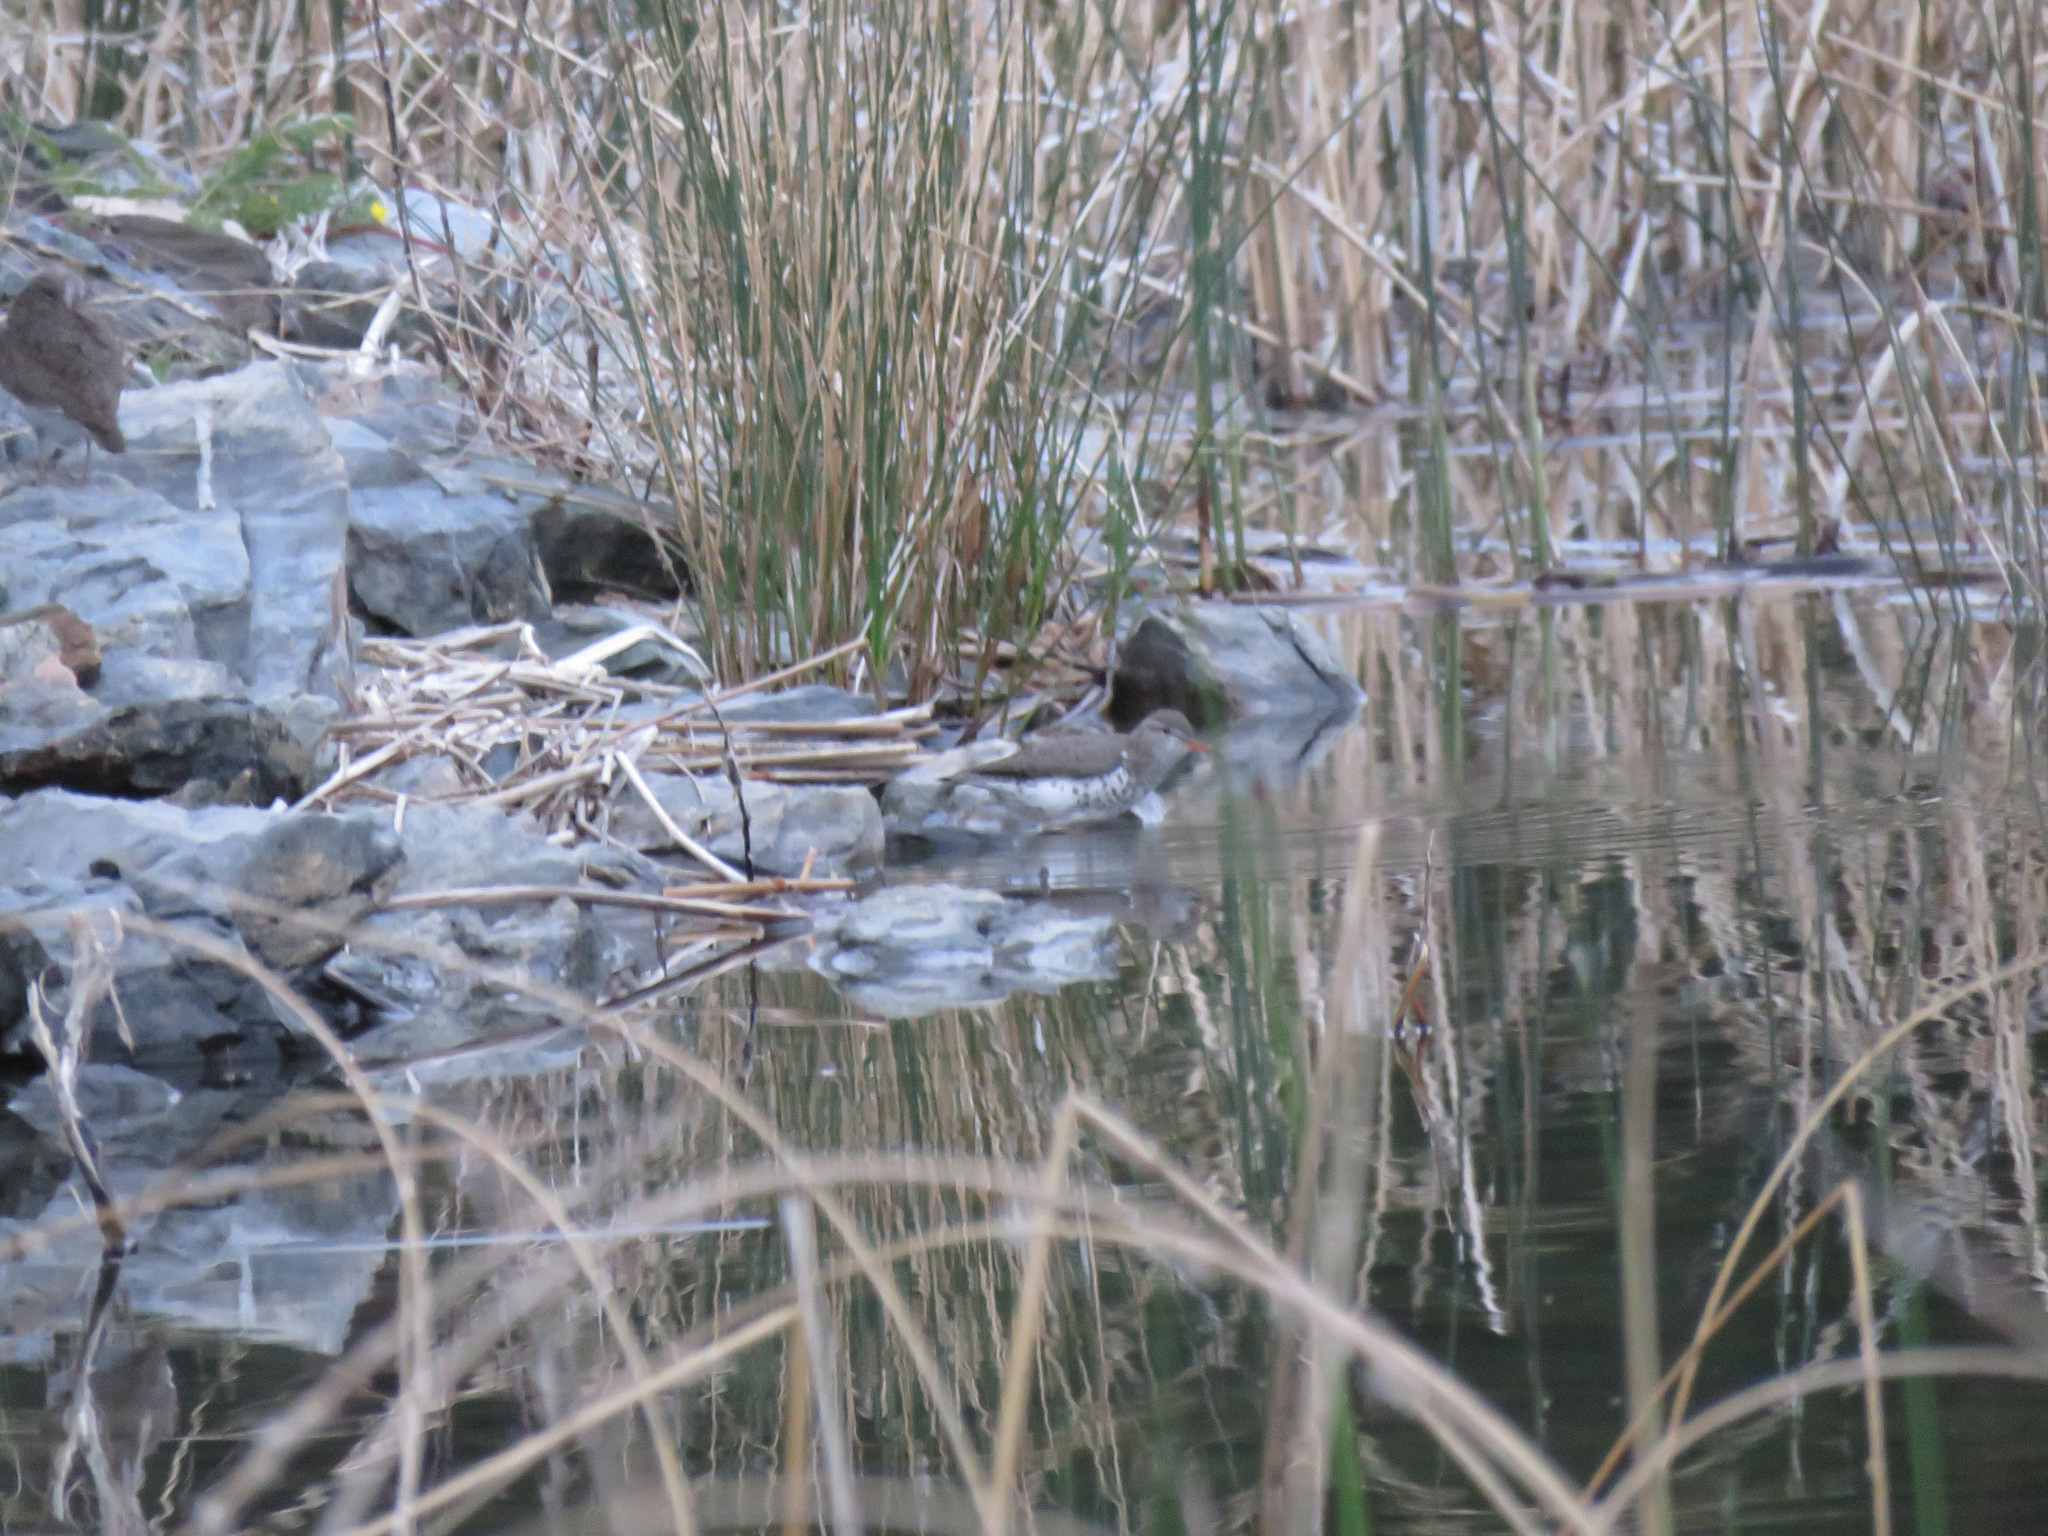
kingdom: Animalia
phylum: Chordata
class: Aves
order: Charadriiformes
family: Scolopacidae
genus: Actitis
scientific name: Actitis macularius
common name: Spotted sandpiper
